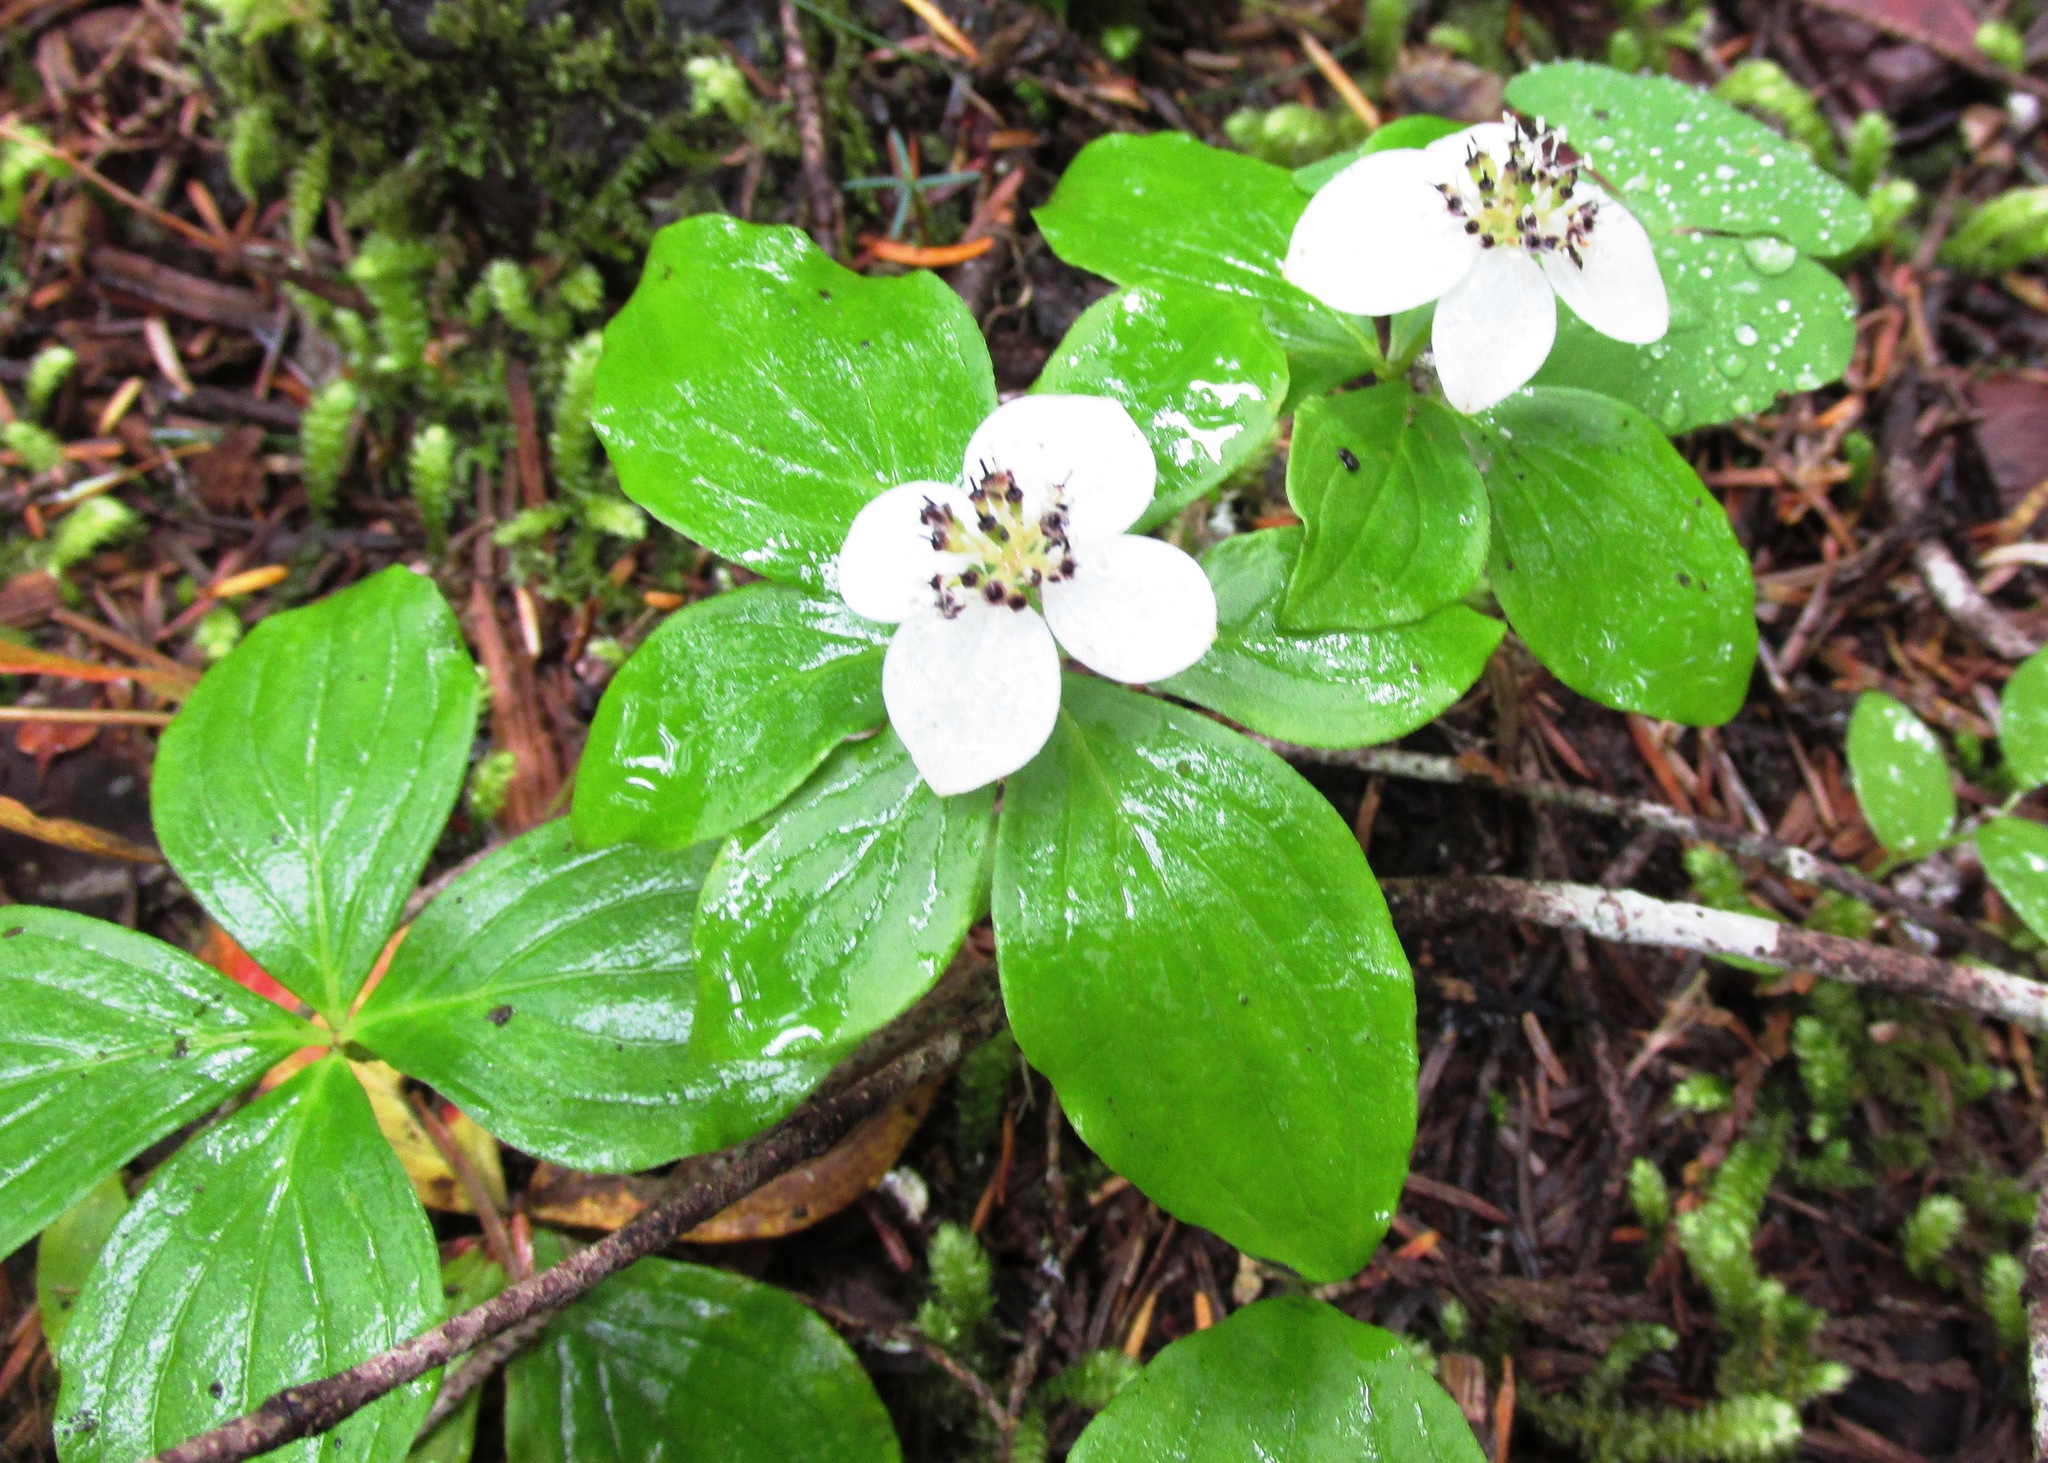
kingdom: Plantae
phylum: Tracheophyta
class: Magnoliopsida
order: Cornales
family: Cornaceae
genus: Cornus
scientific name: Cornus unalaschkensis
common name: Alaska bunchberry
